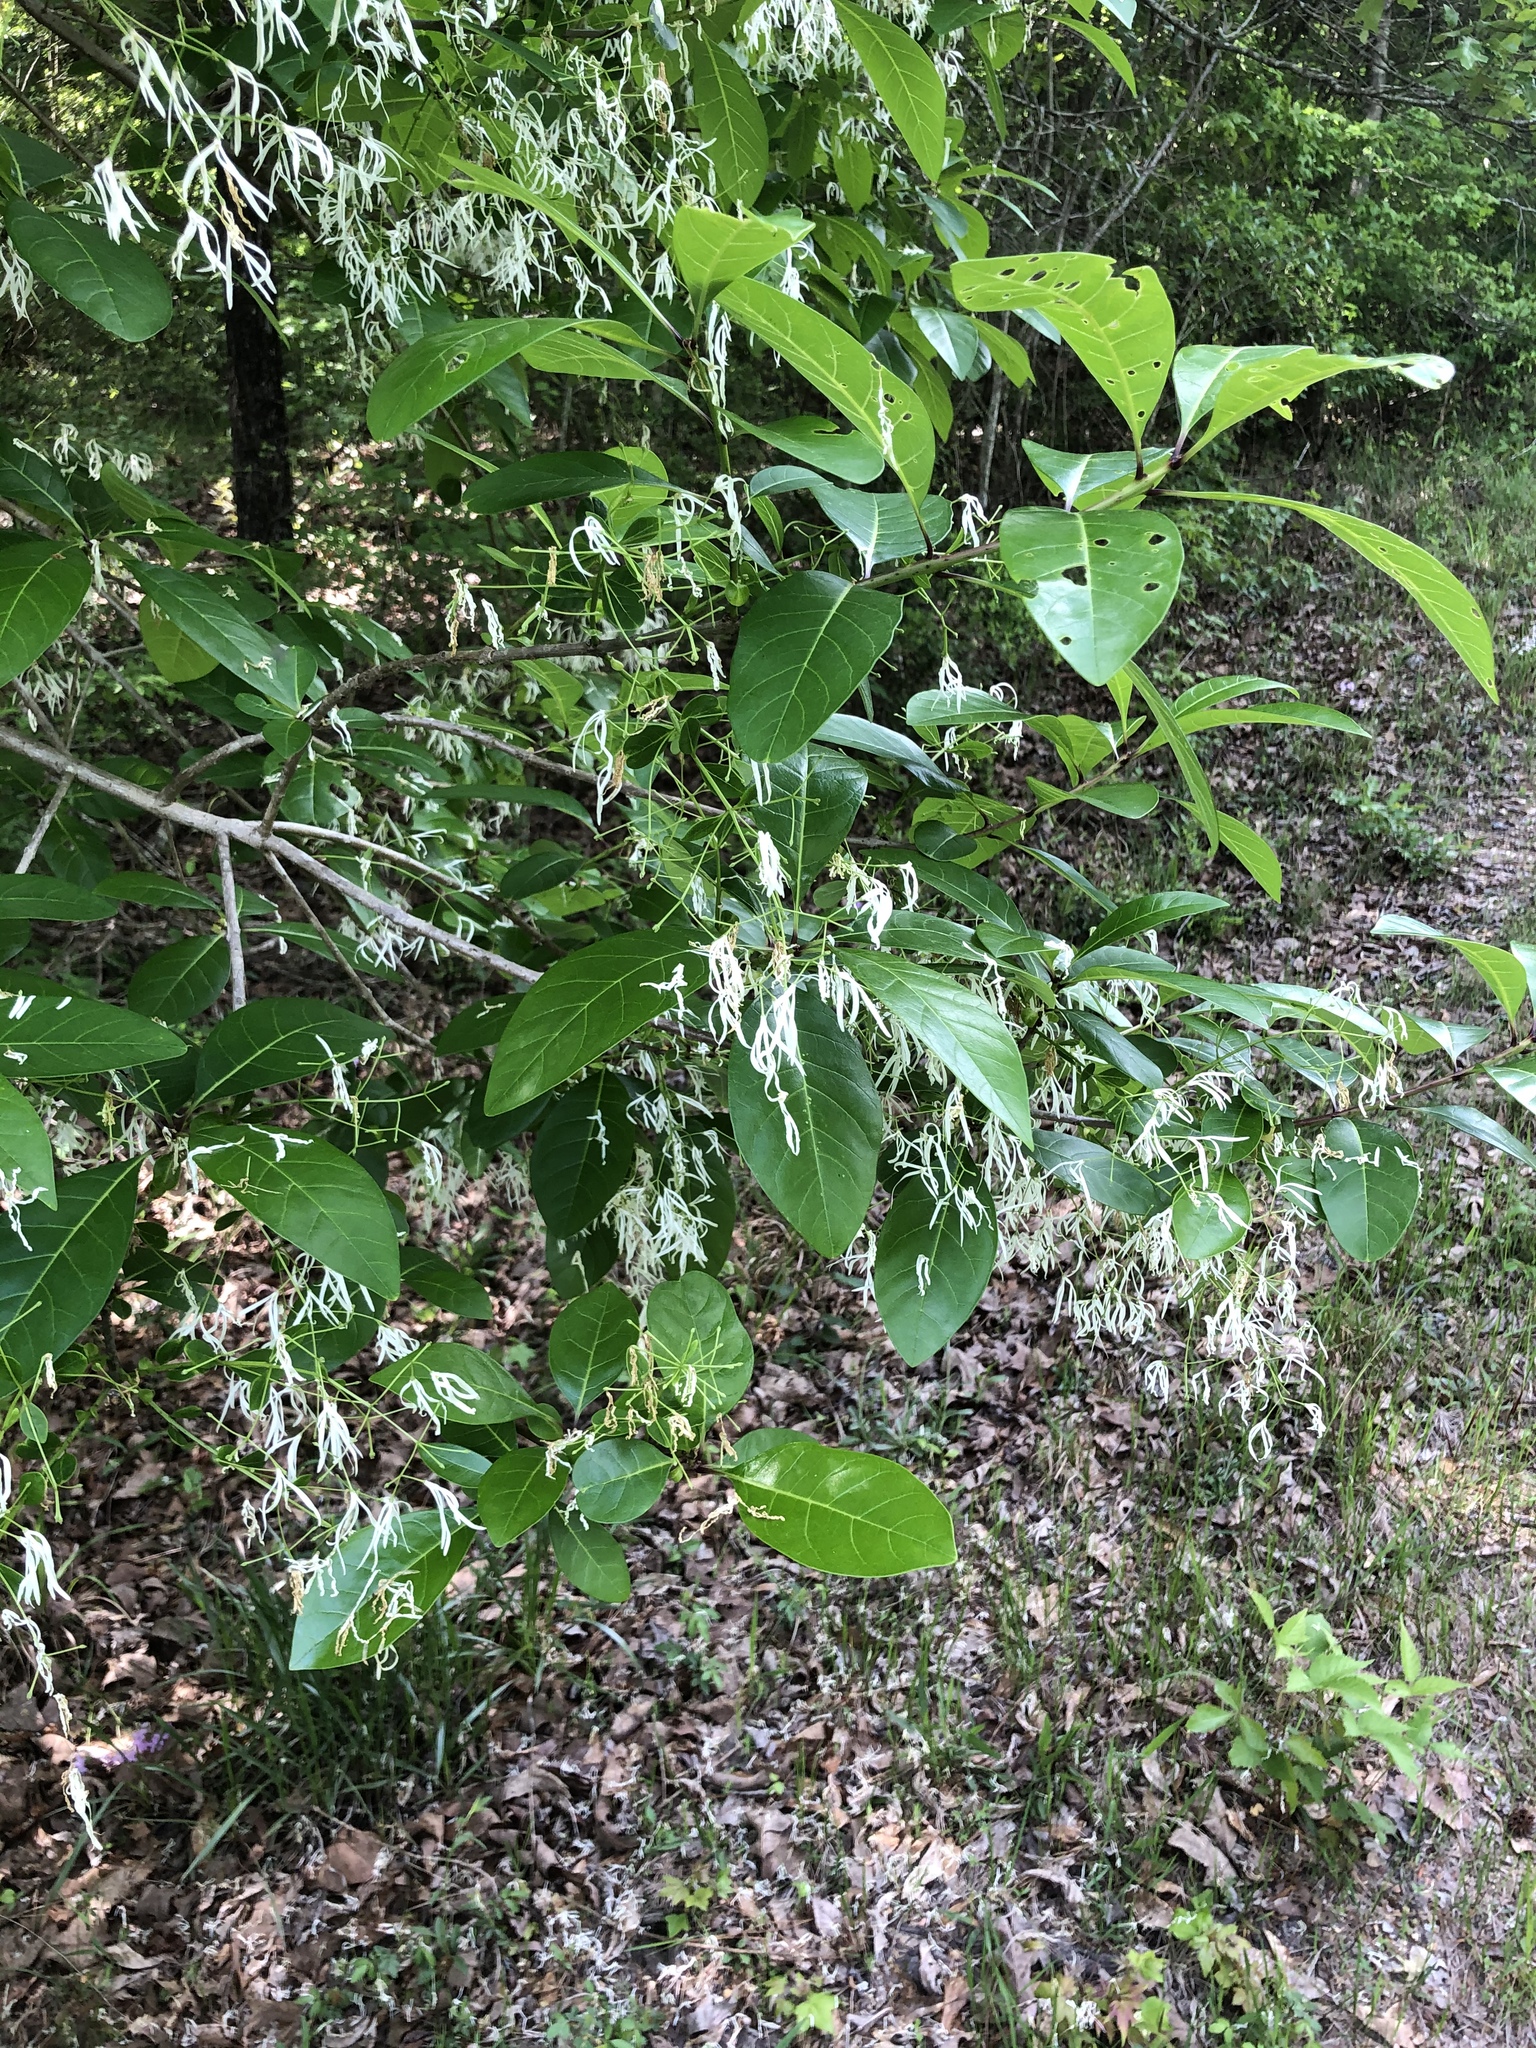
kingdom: Plantae
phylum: Tracheophyta
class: Magnoliopsida
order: Lamiales
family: Oleaceae
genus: Chionanthus
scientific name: Chionanthus virginicus
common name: American fringetree
